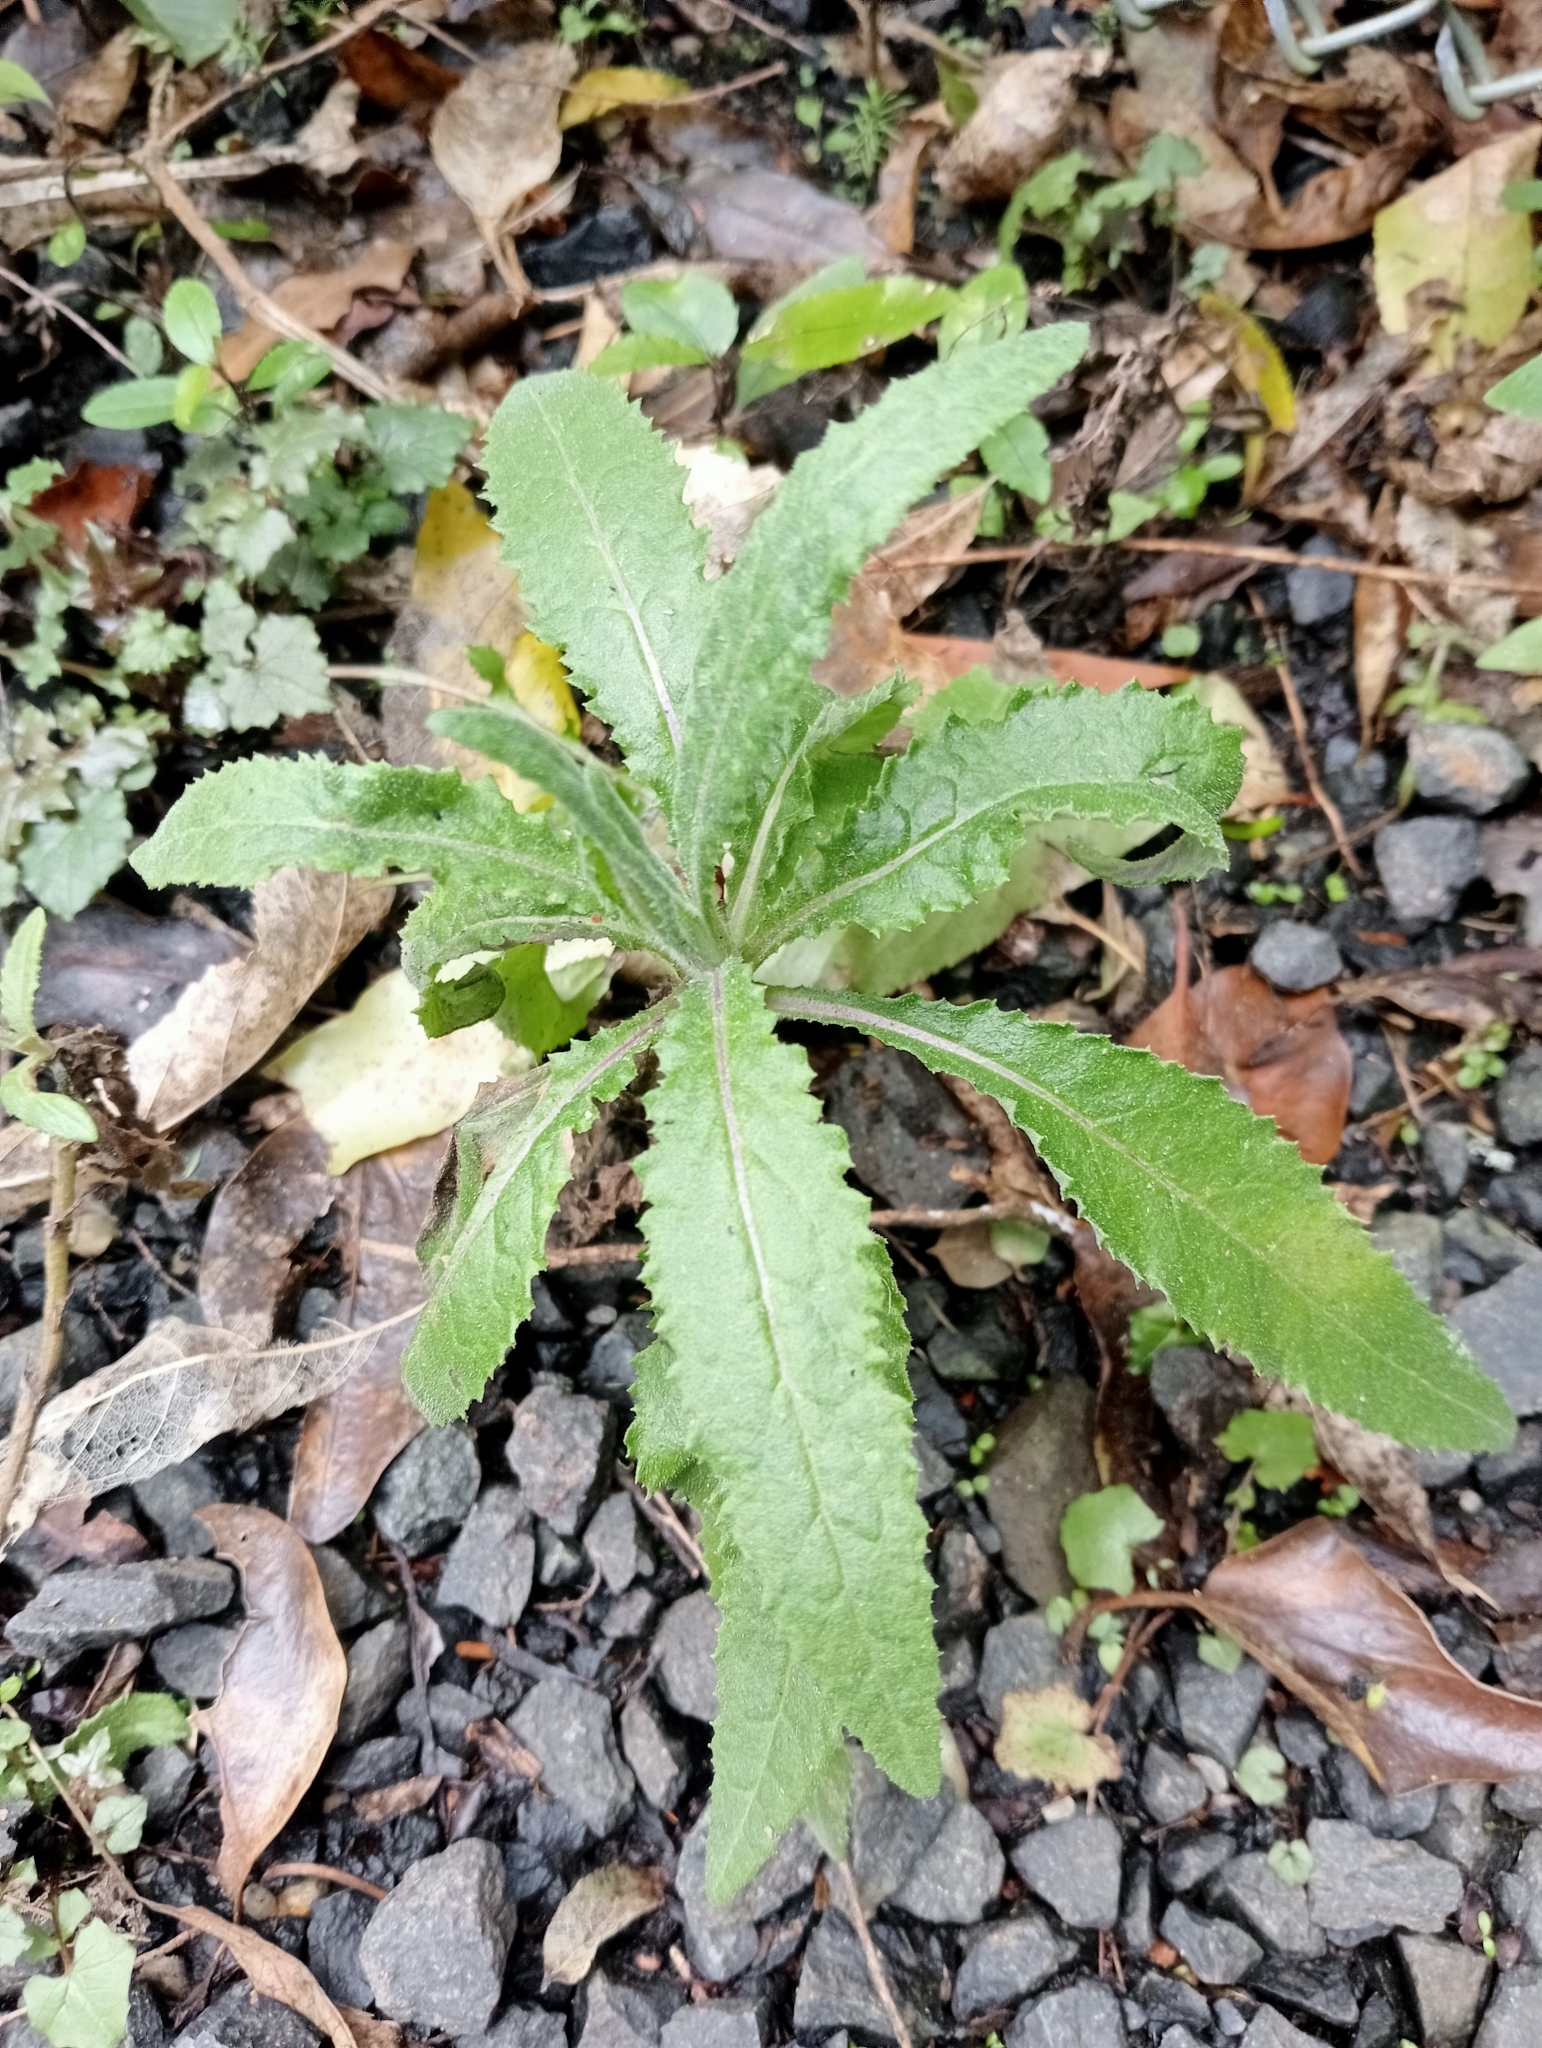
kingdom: Plantae
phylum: Tracheophyta
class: Magnoliopsida
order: Asterales
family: Asteraceae
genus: Senecio
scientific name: Senecio minimus
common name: Toothed fireweed
